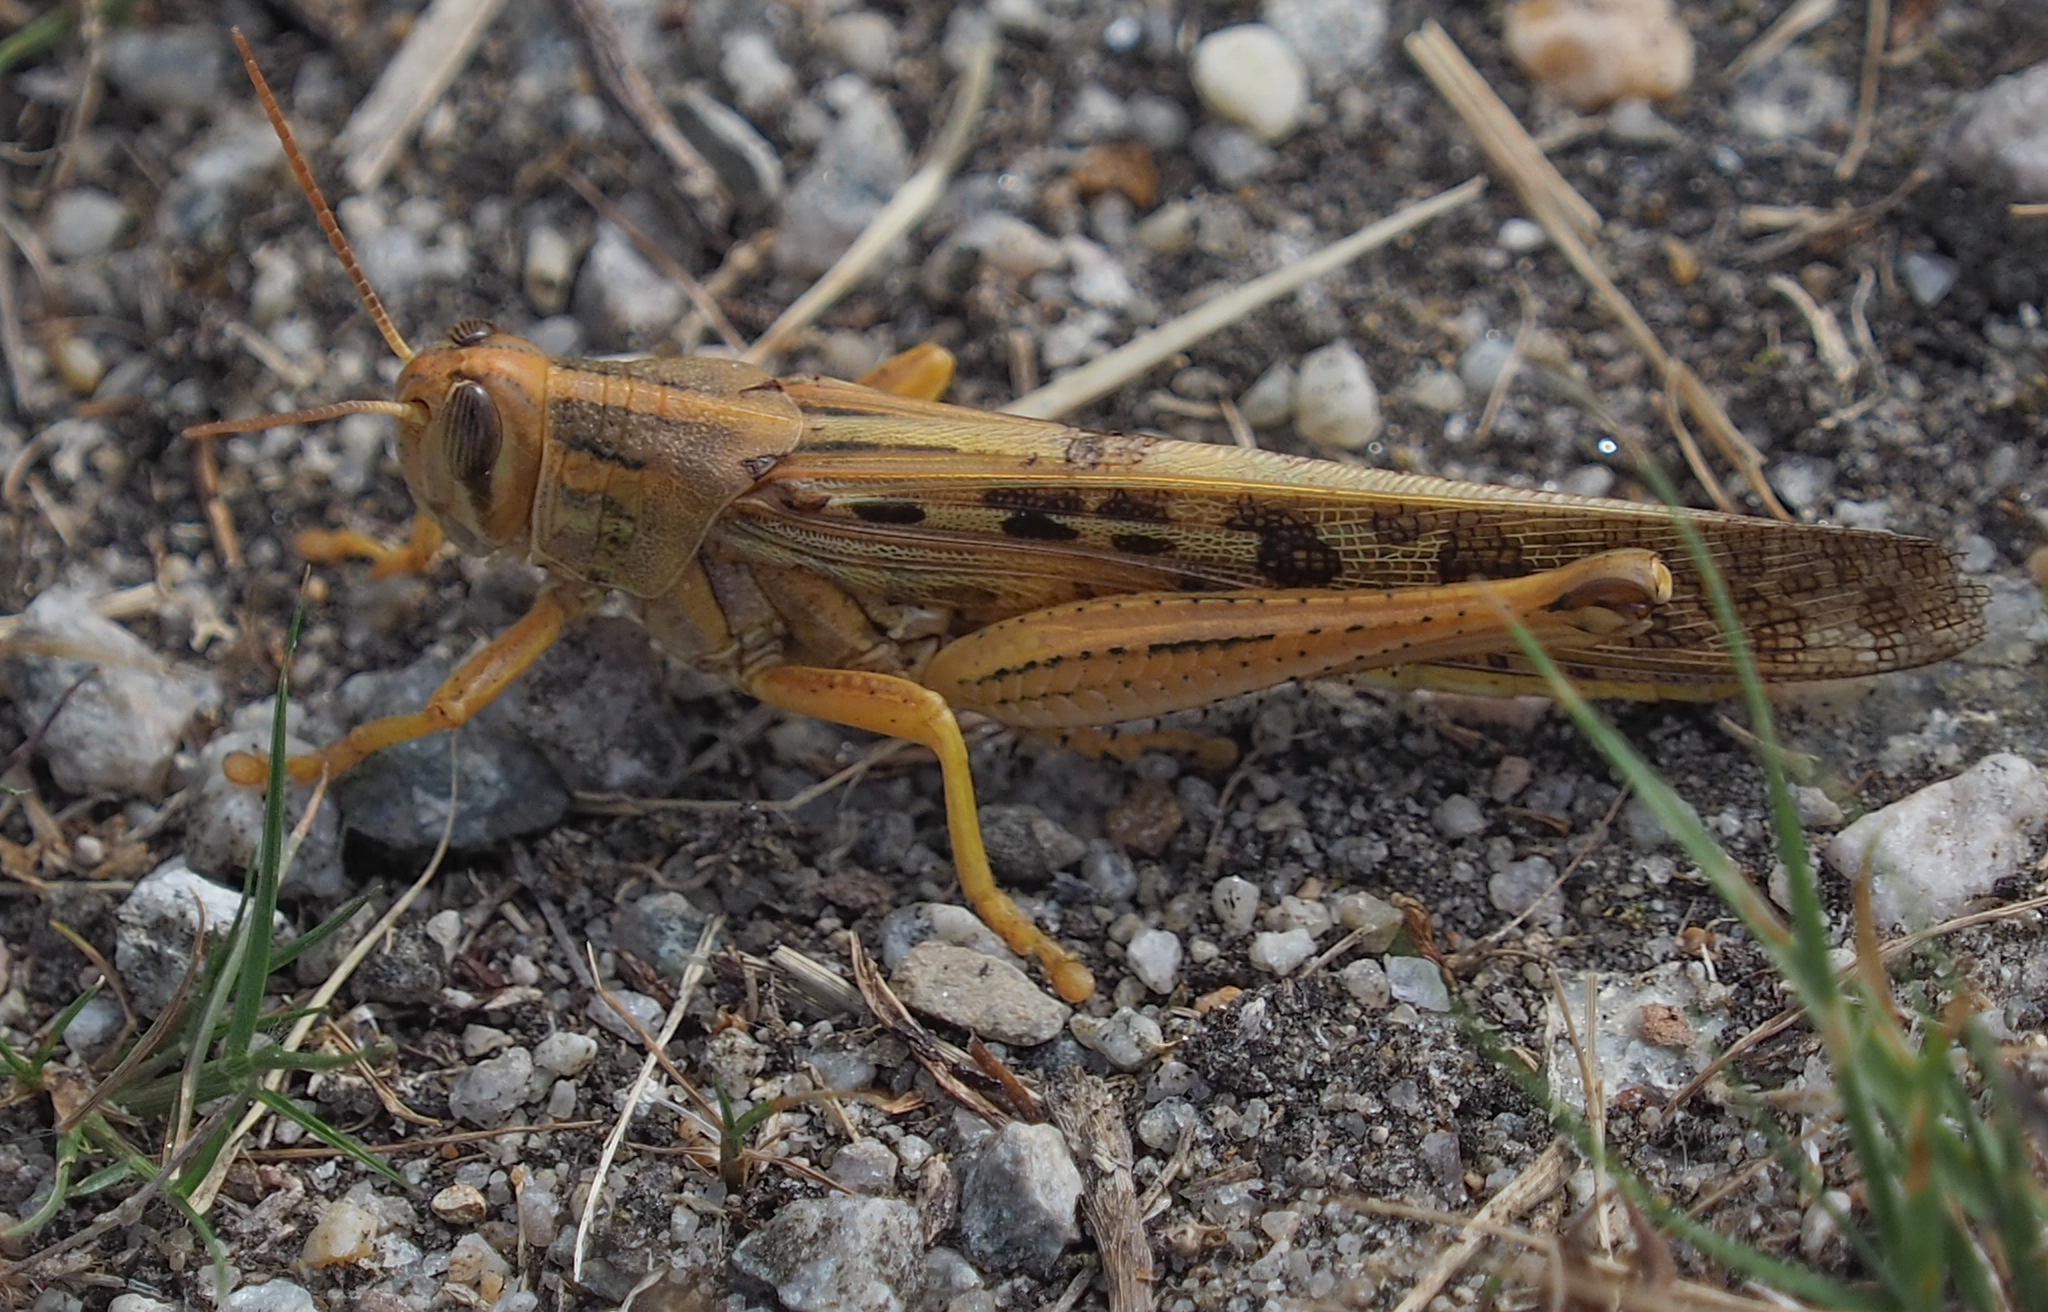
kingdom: Animalia
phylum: Arthropoda
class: Insecta
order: Orthoptera
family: Acrididae
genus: Schistocerca
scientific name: Schistocerca americana
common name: American bird locust
